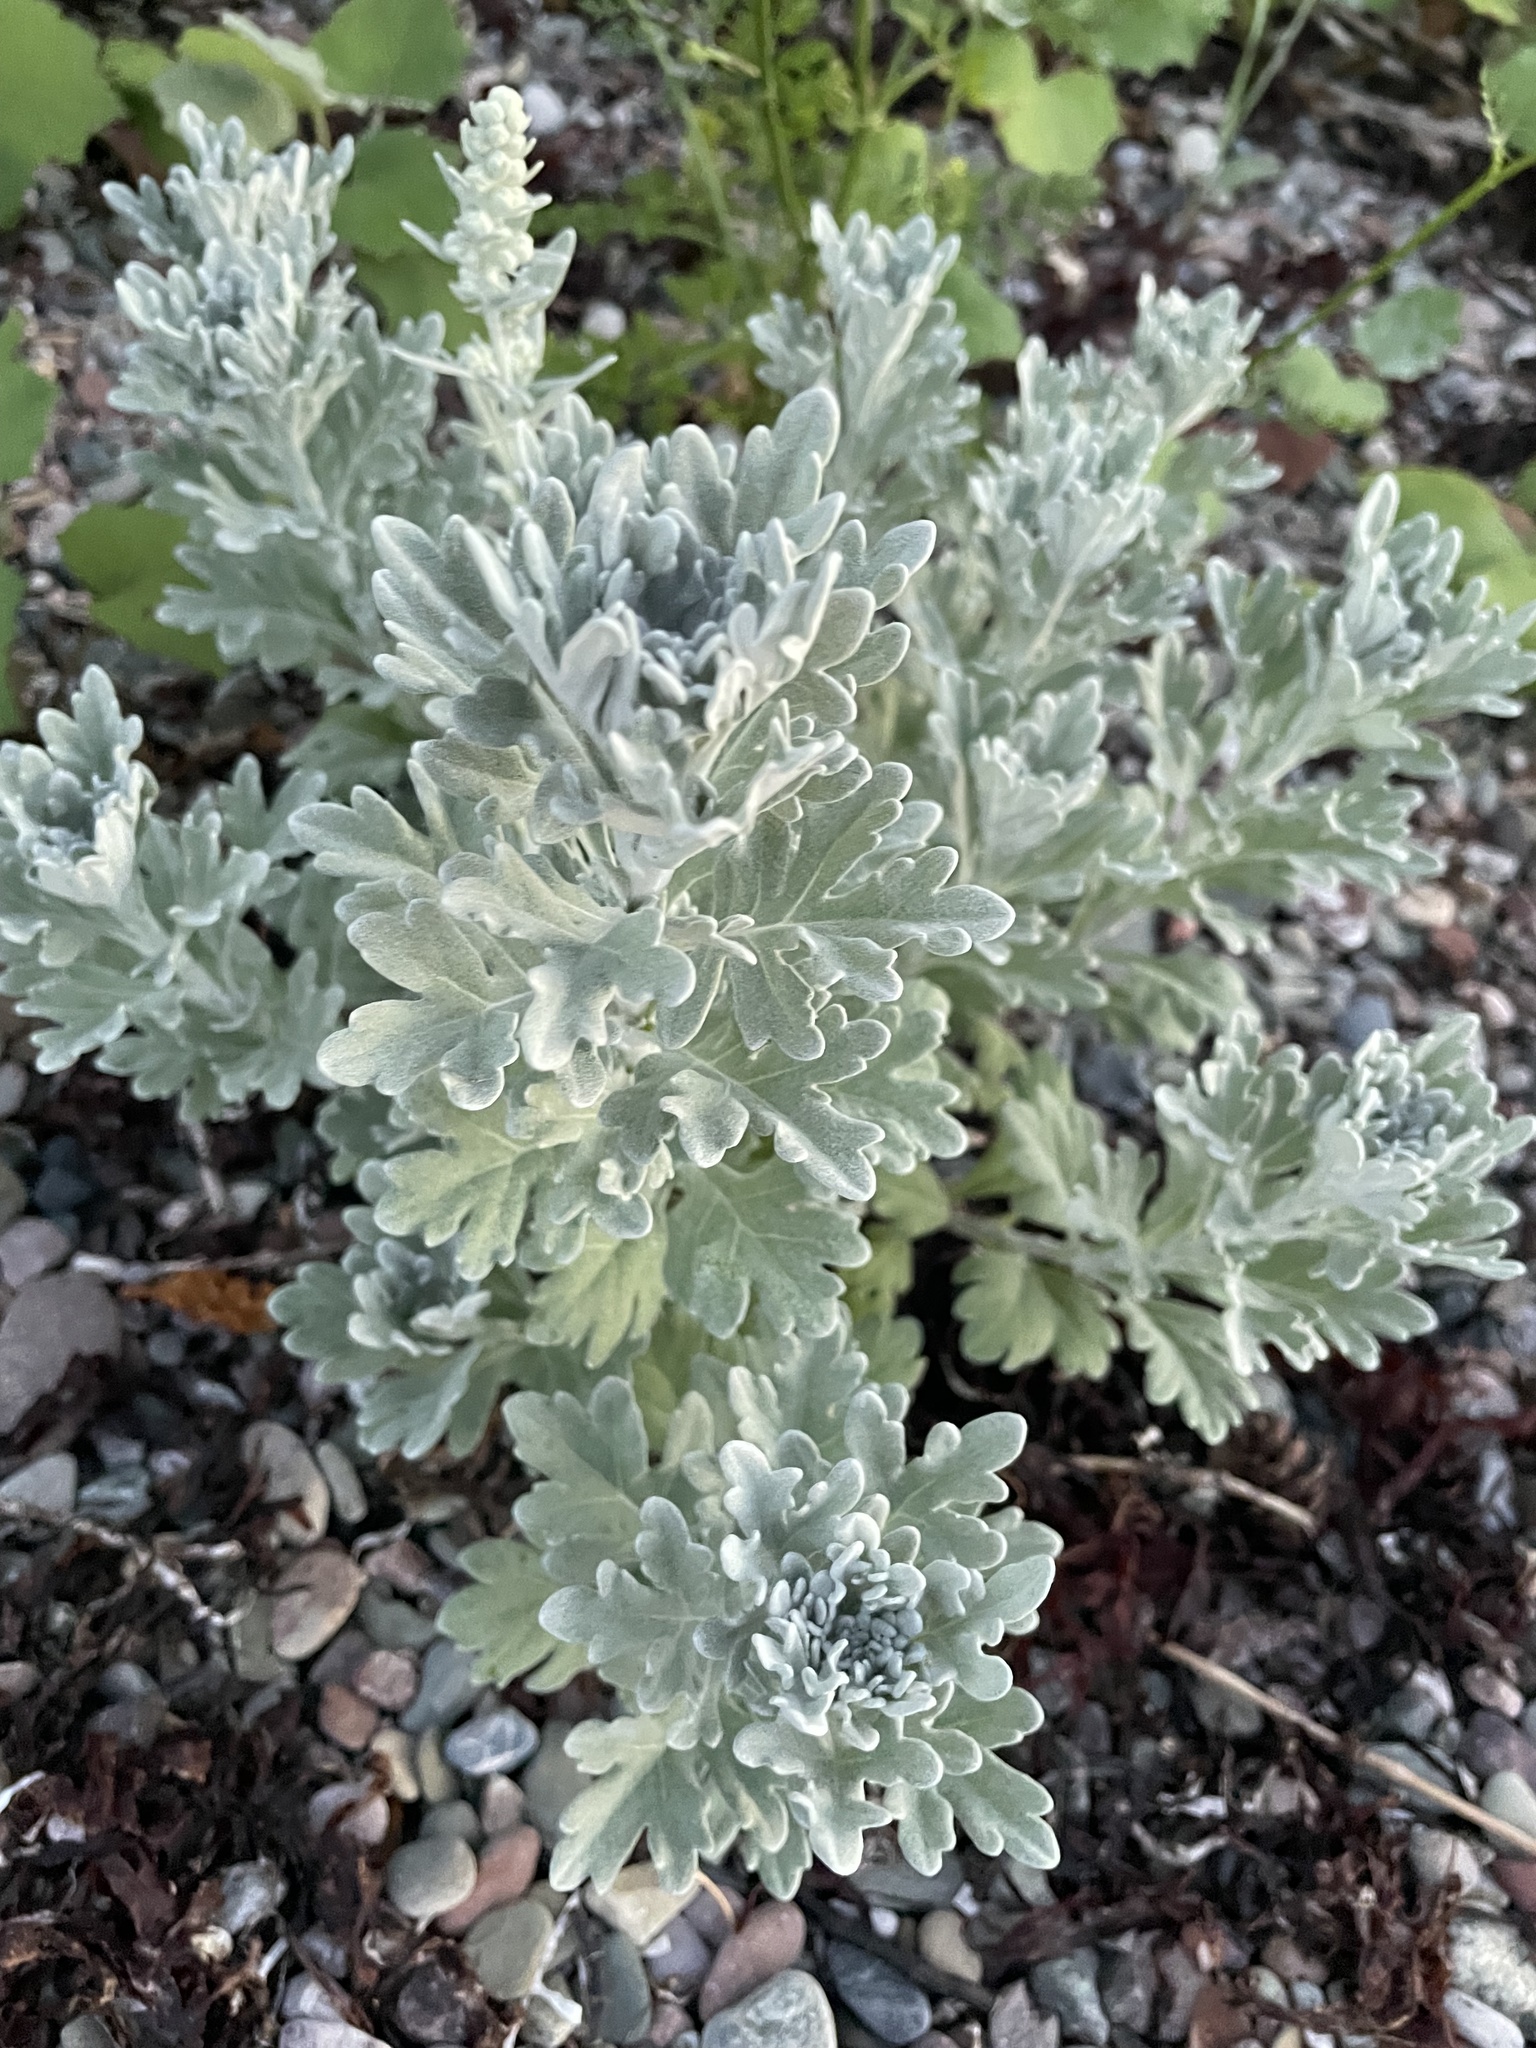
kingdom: Plantae
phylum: Tracheophyta
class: Magnoliopsida
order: Asterales
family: Asteraceae
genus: Artemisia
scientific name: Artemisia stelleriana
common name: Beach wormwood
